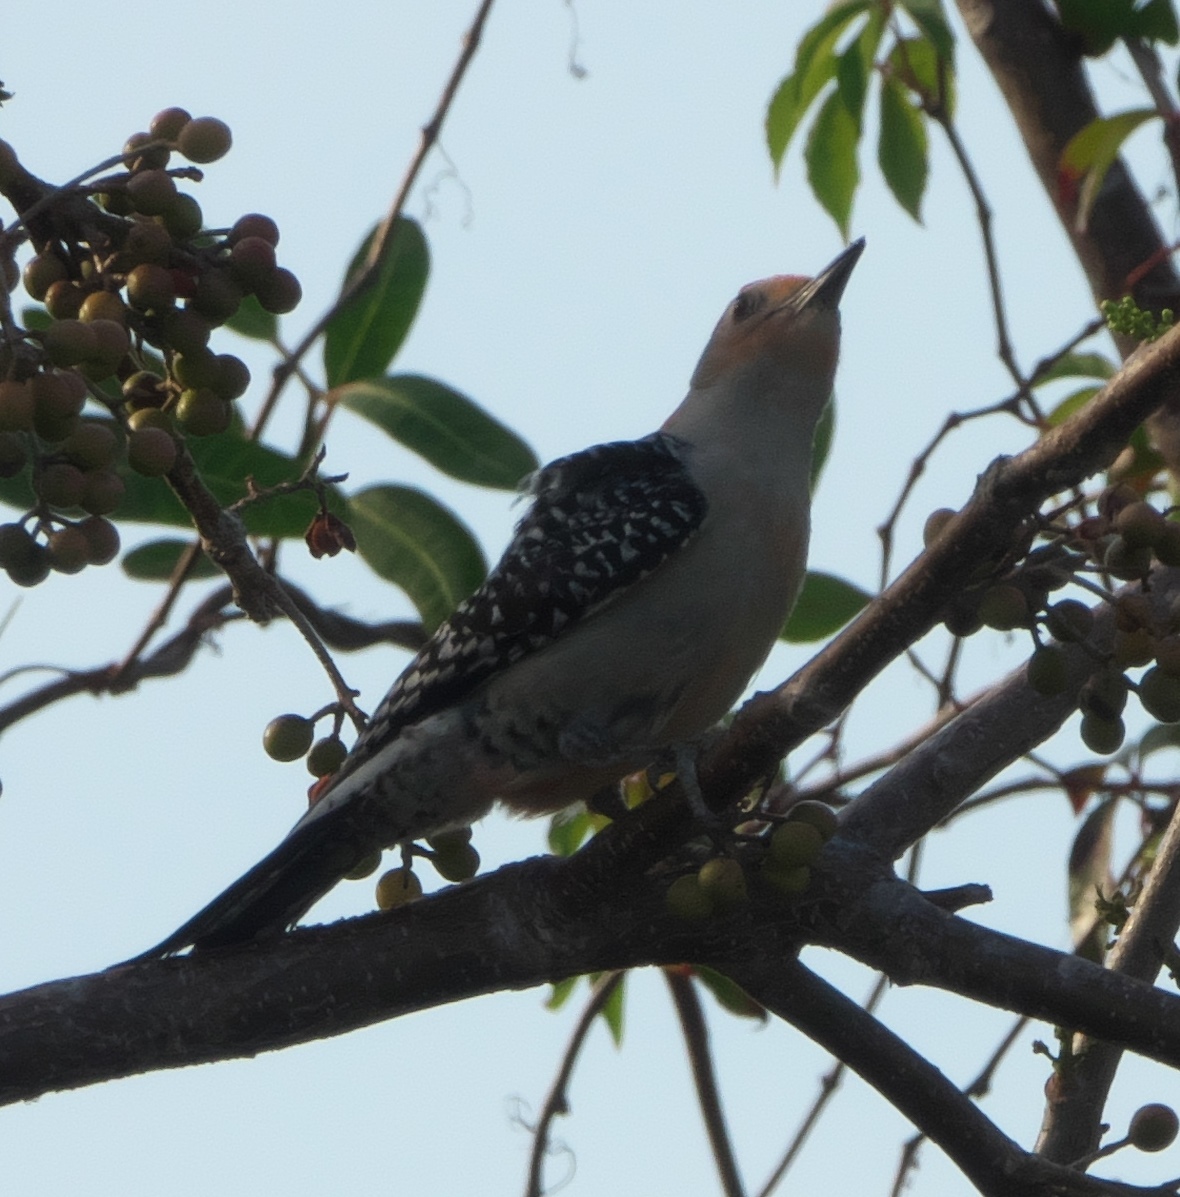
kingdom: Animalia
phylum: Chordata
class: Aves
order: Piciformes
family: Picidae
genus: Melanerpes
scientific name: Melanerpes carolinus
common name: Red-bellied woodpecker
